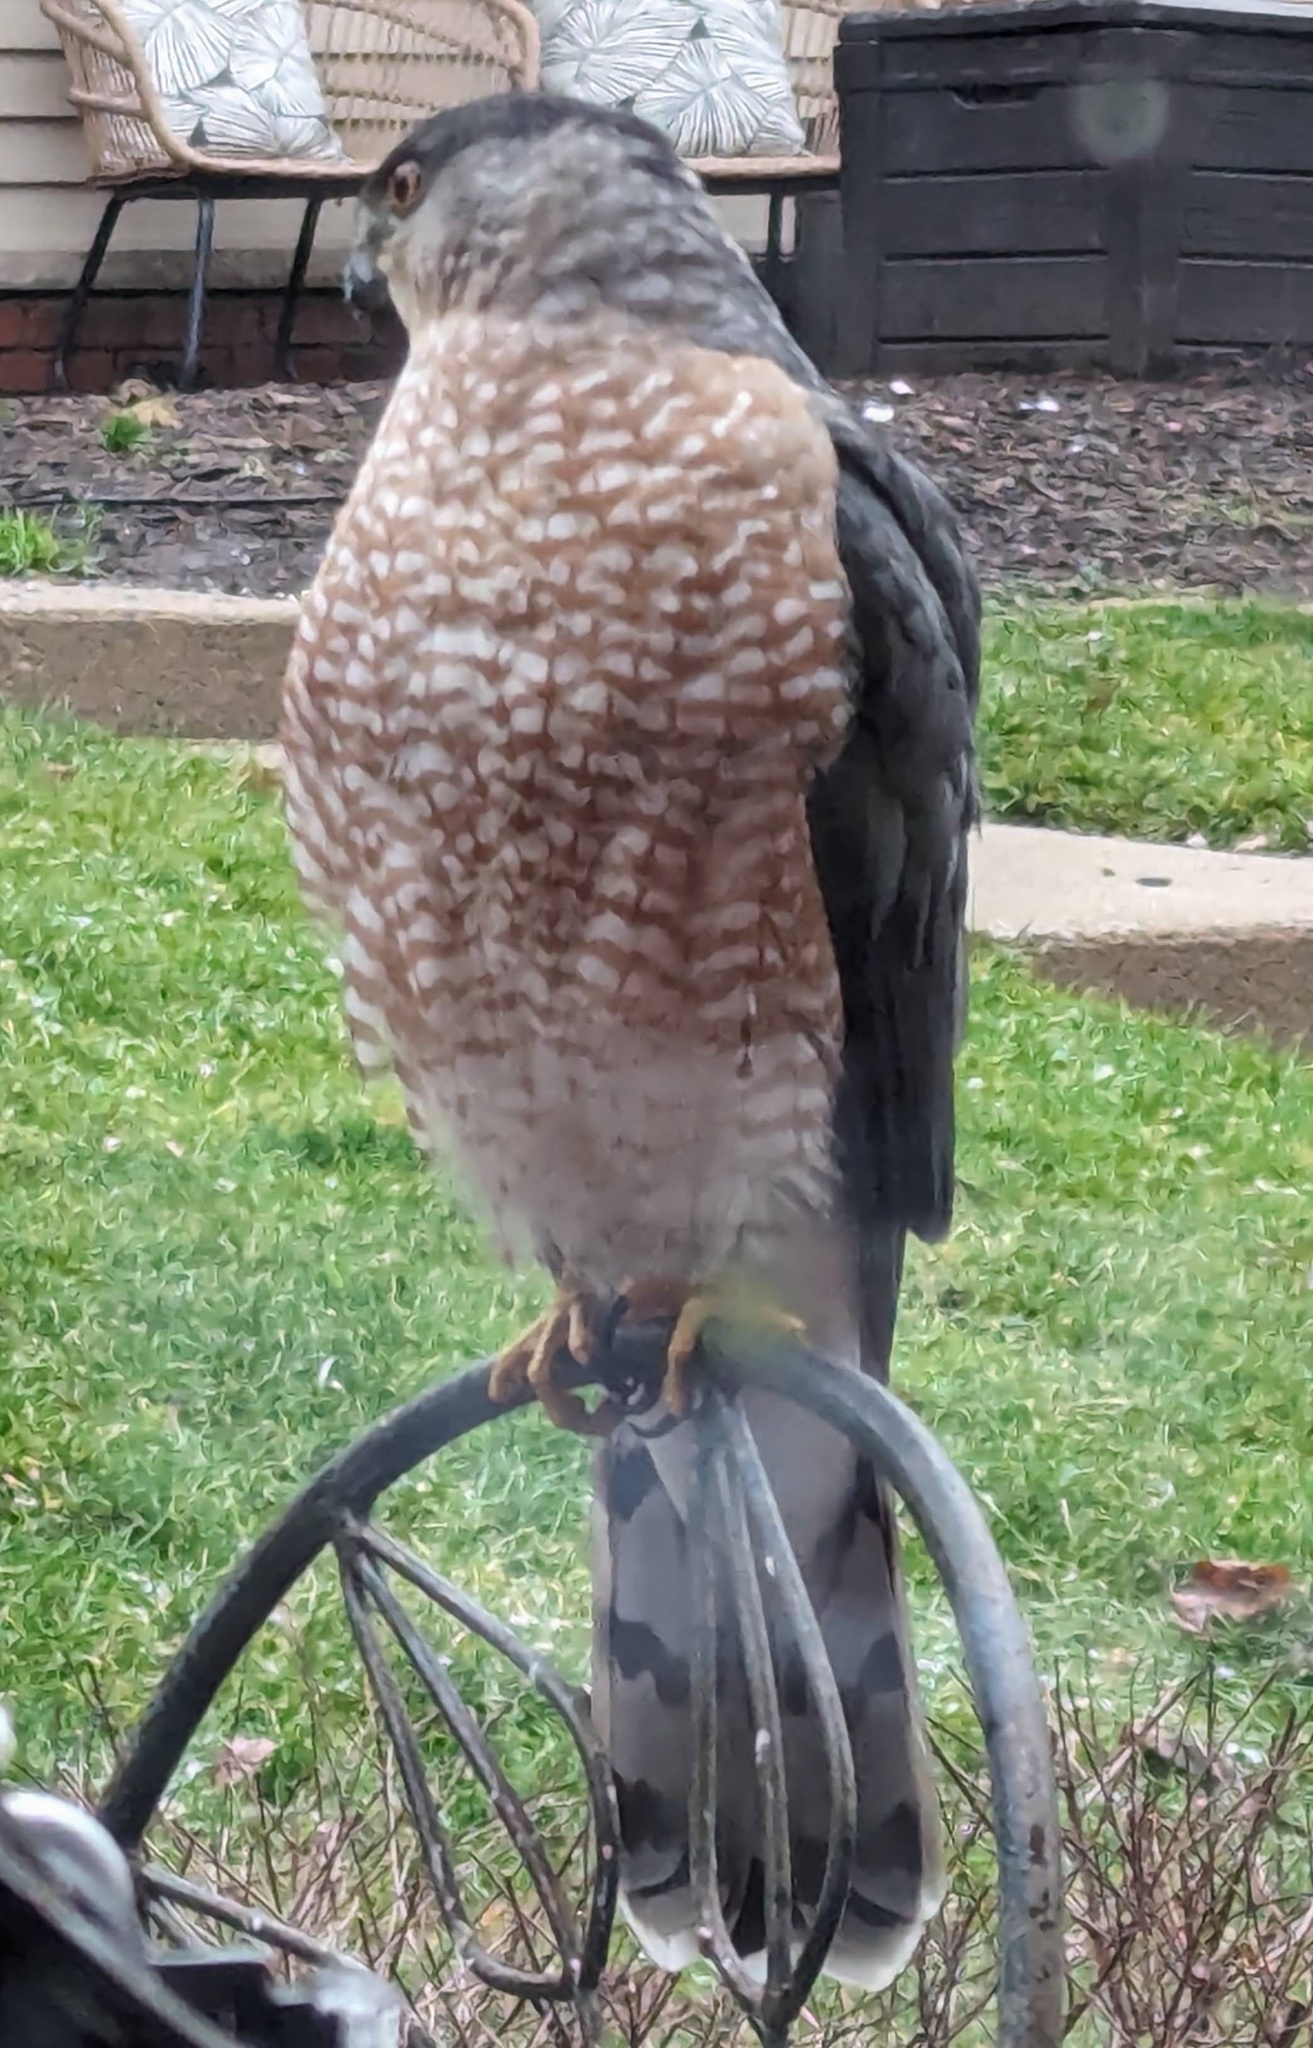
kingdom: Animalia
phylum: Chordata
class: Aves
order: Accipitriformes
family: Accipitridae
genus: Accipiter
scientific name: Accipiter cooperii
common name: Cooper's hawk
